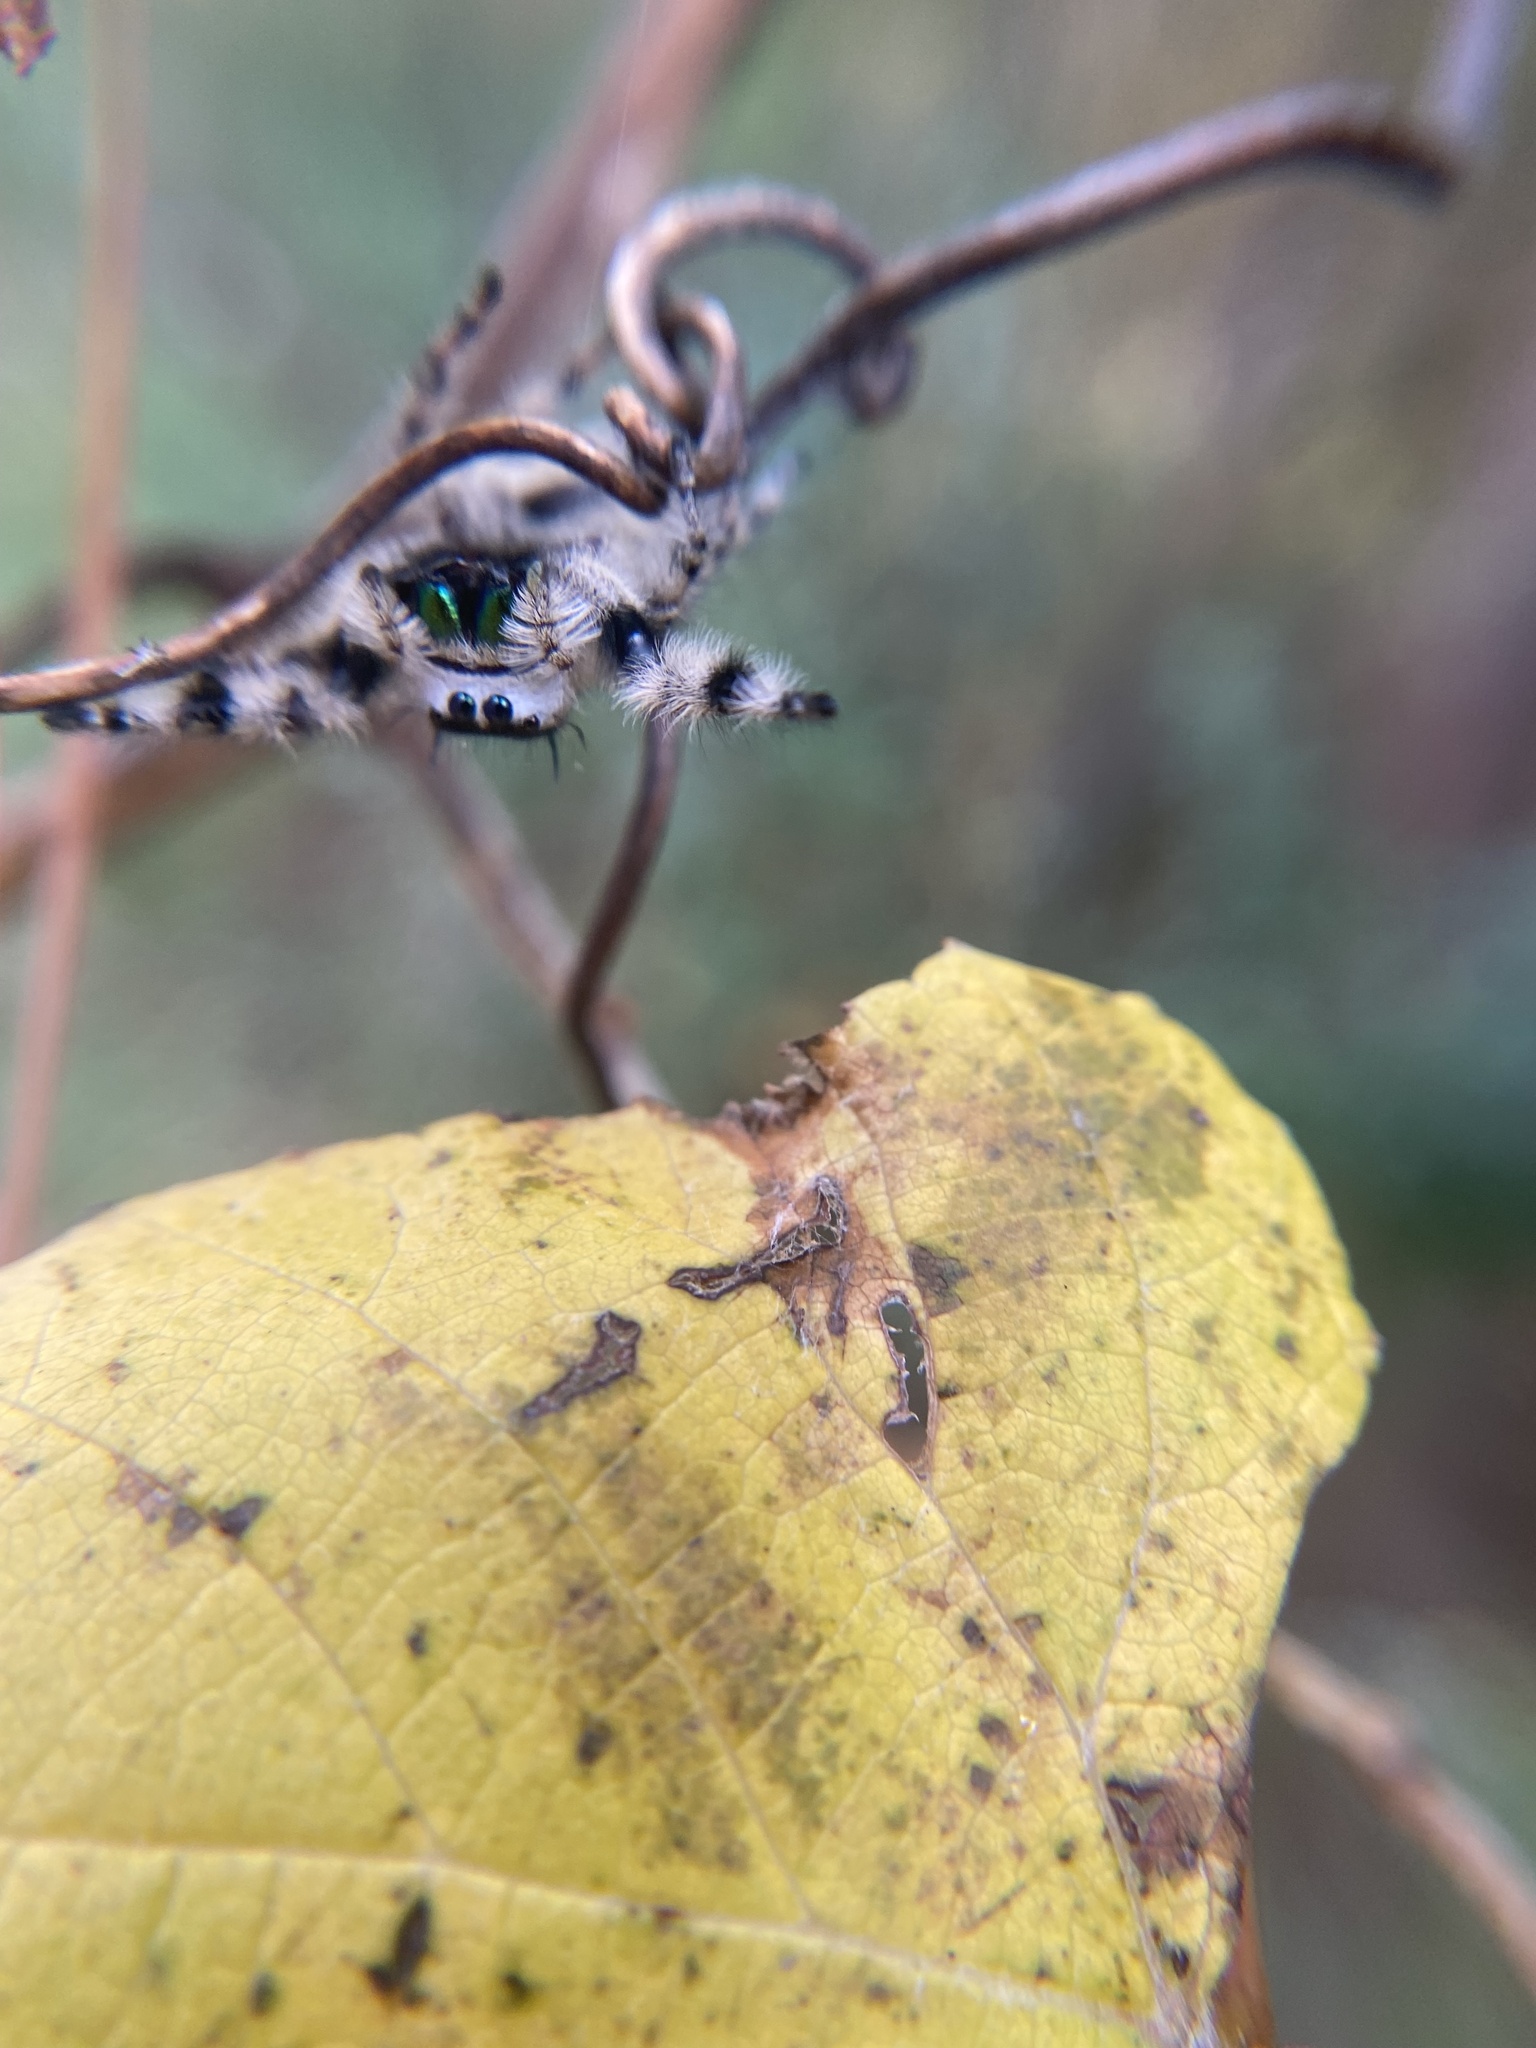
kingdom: Animalia
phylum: Arthropoda
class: Arachnida
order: Araneae
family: Salticidae
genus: Phidippus
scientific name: Phidippus otiosus
